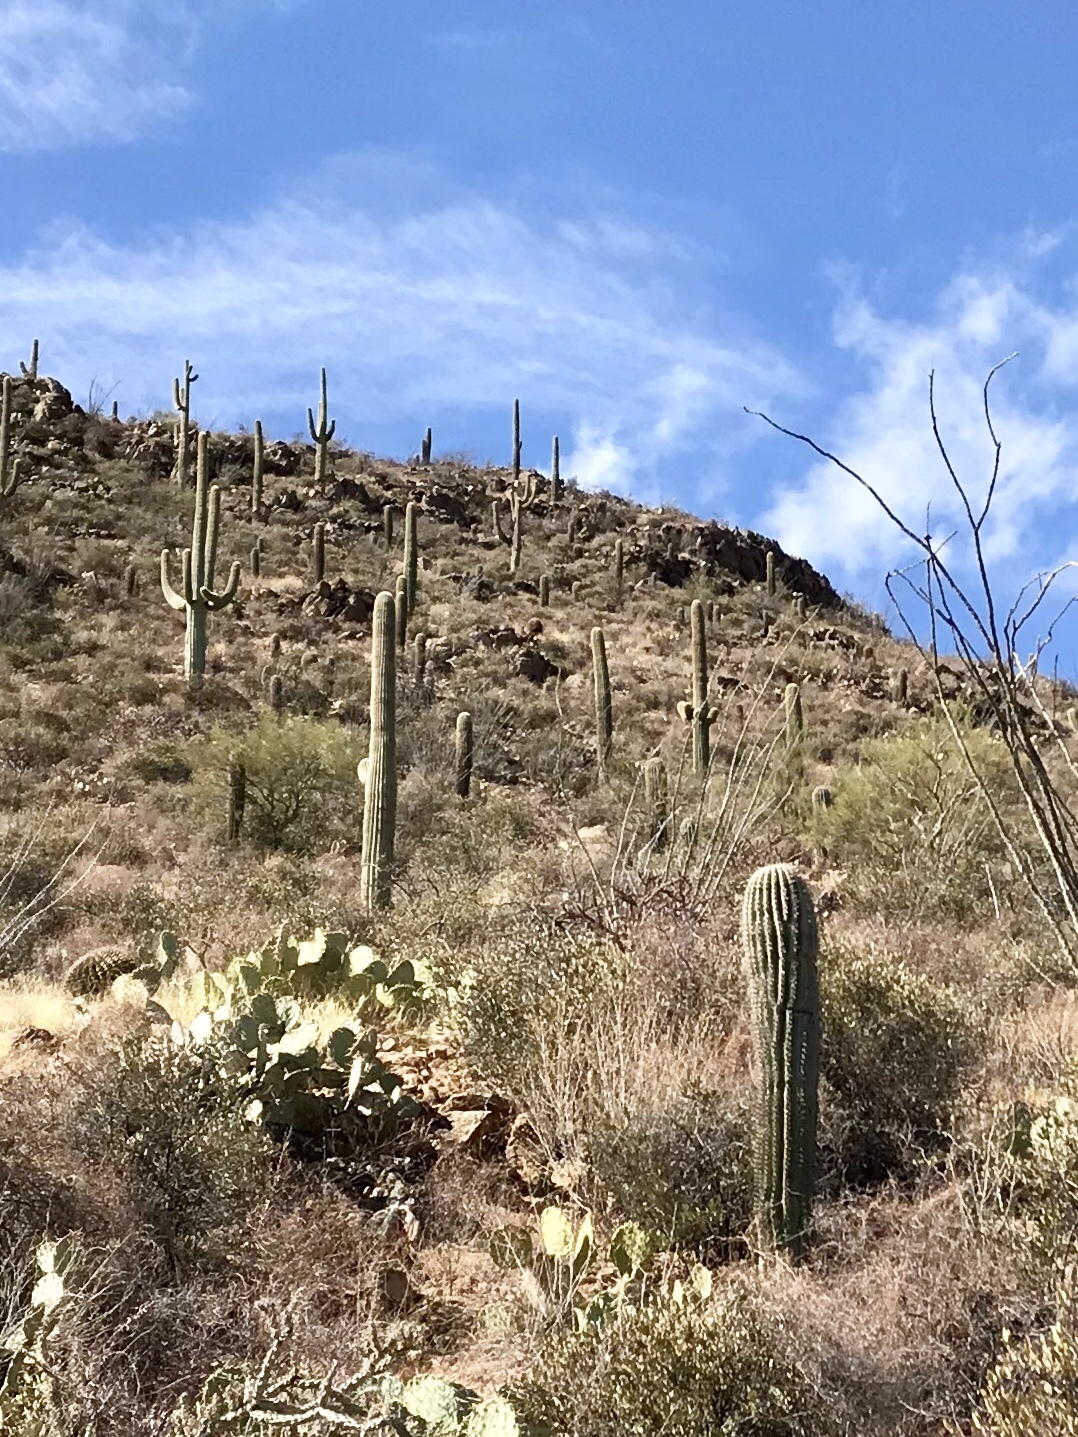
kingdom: Plantae
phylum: Tracheophyta
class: Magnoliopsida
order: Caryophyllales
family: Cactaceae
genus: Carnegiea
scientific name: Carnegiea gigantea
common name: Saguaro
